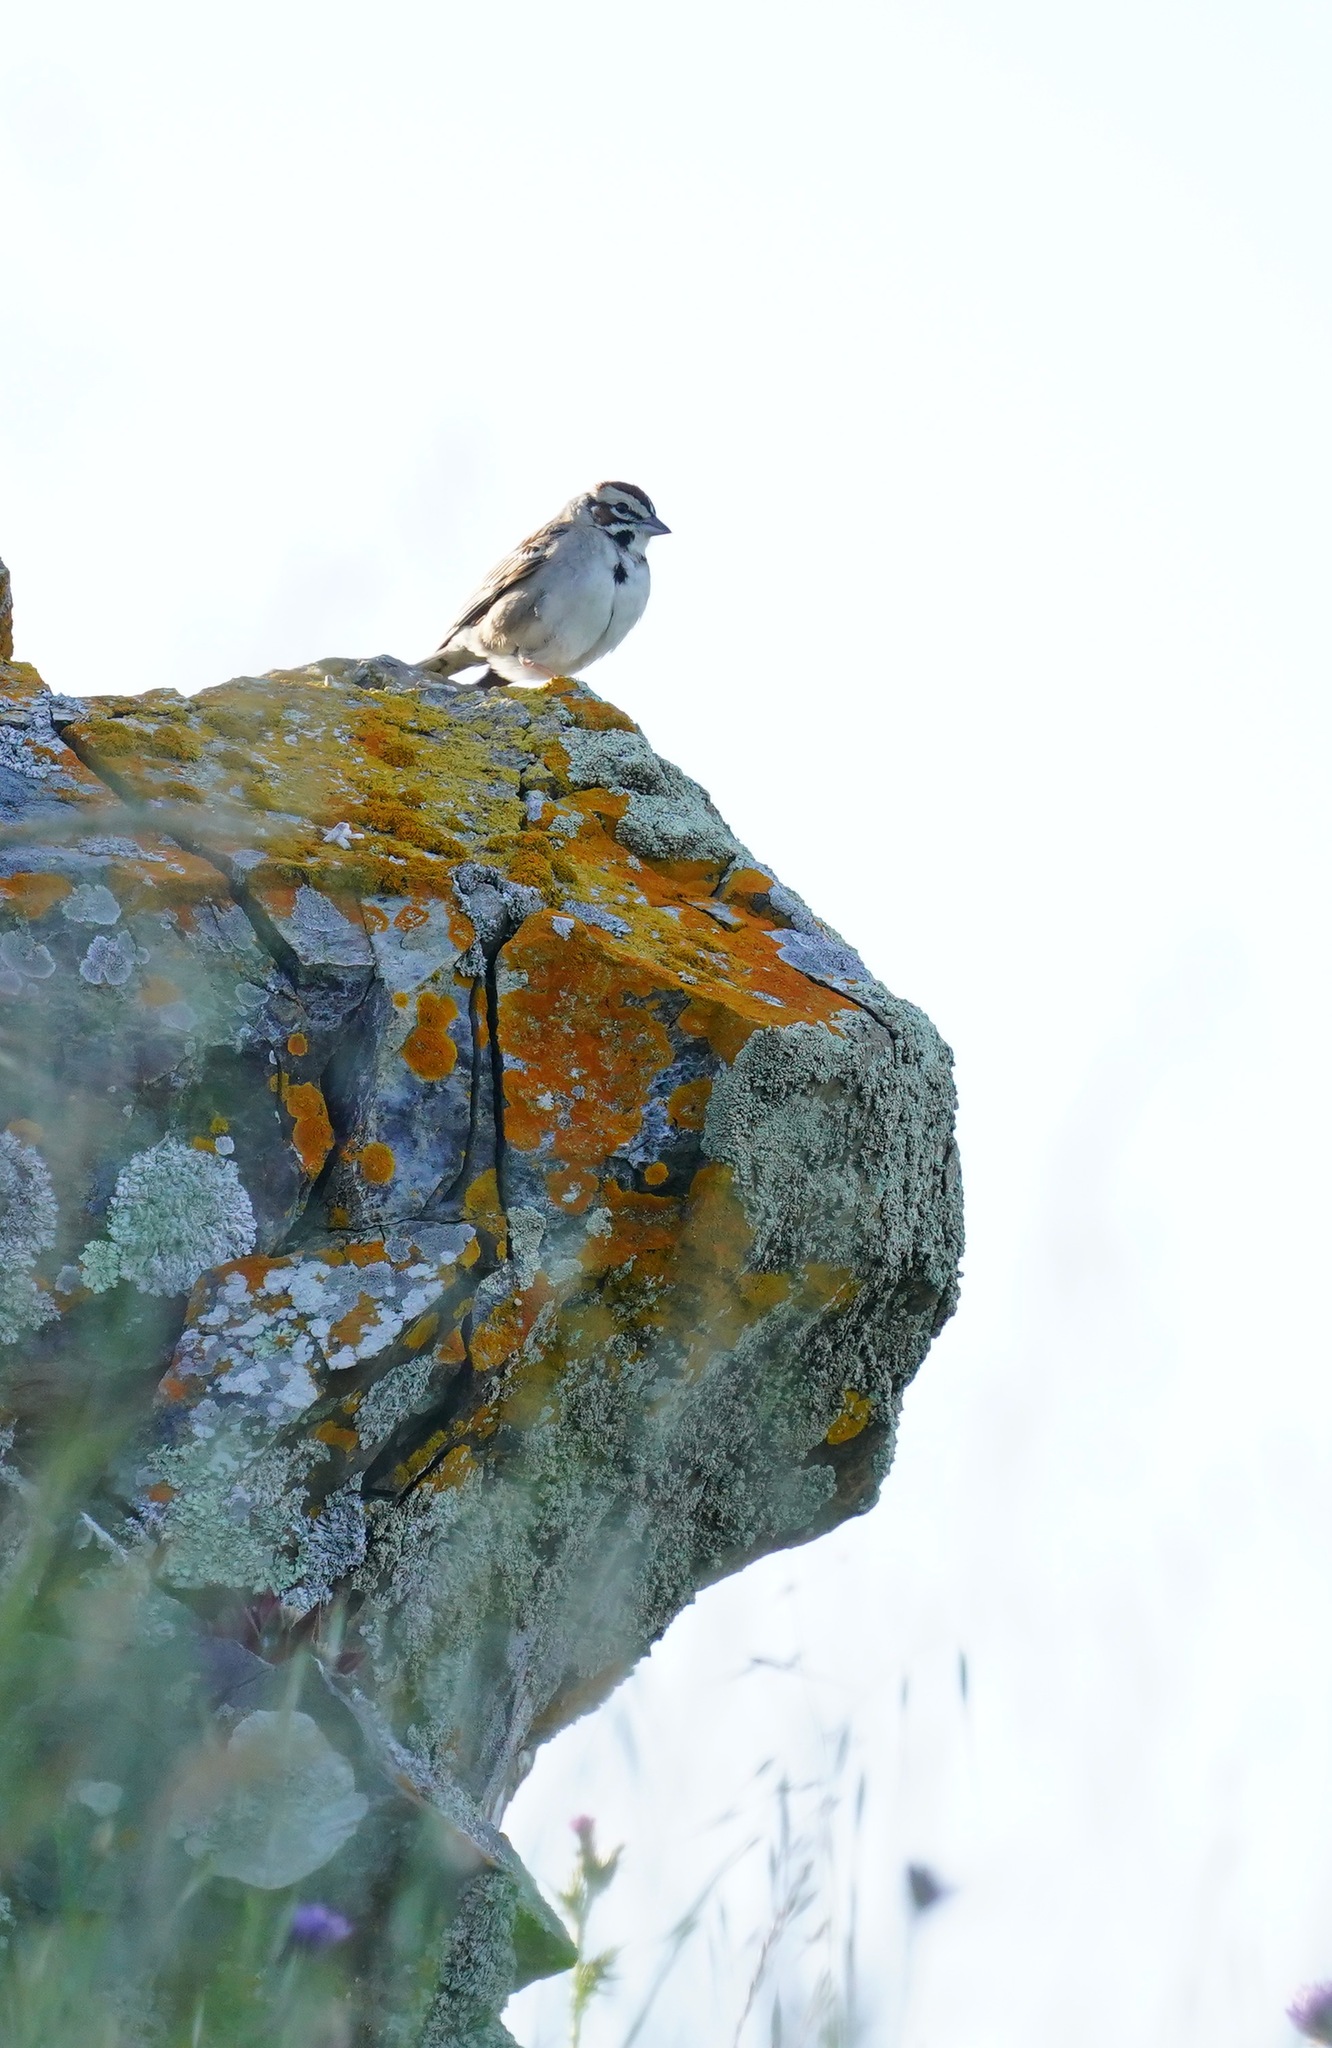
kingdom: Animalia
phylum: Chordata
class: Aves
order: Passeriformes
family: Passerellidae
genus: Chondestes
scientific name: Chondestes grammacus
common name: Lark sparrow
